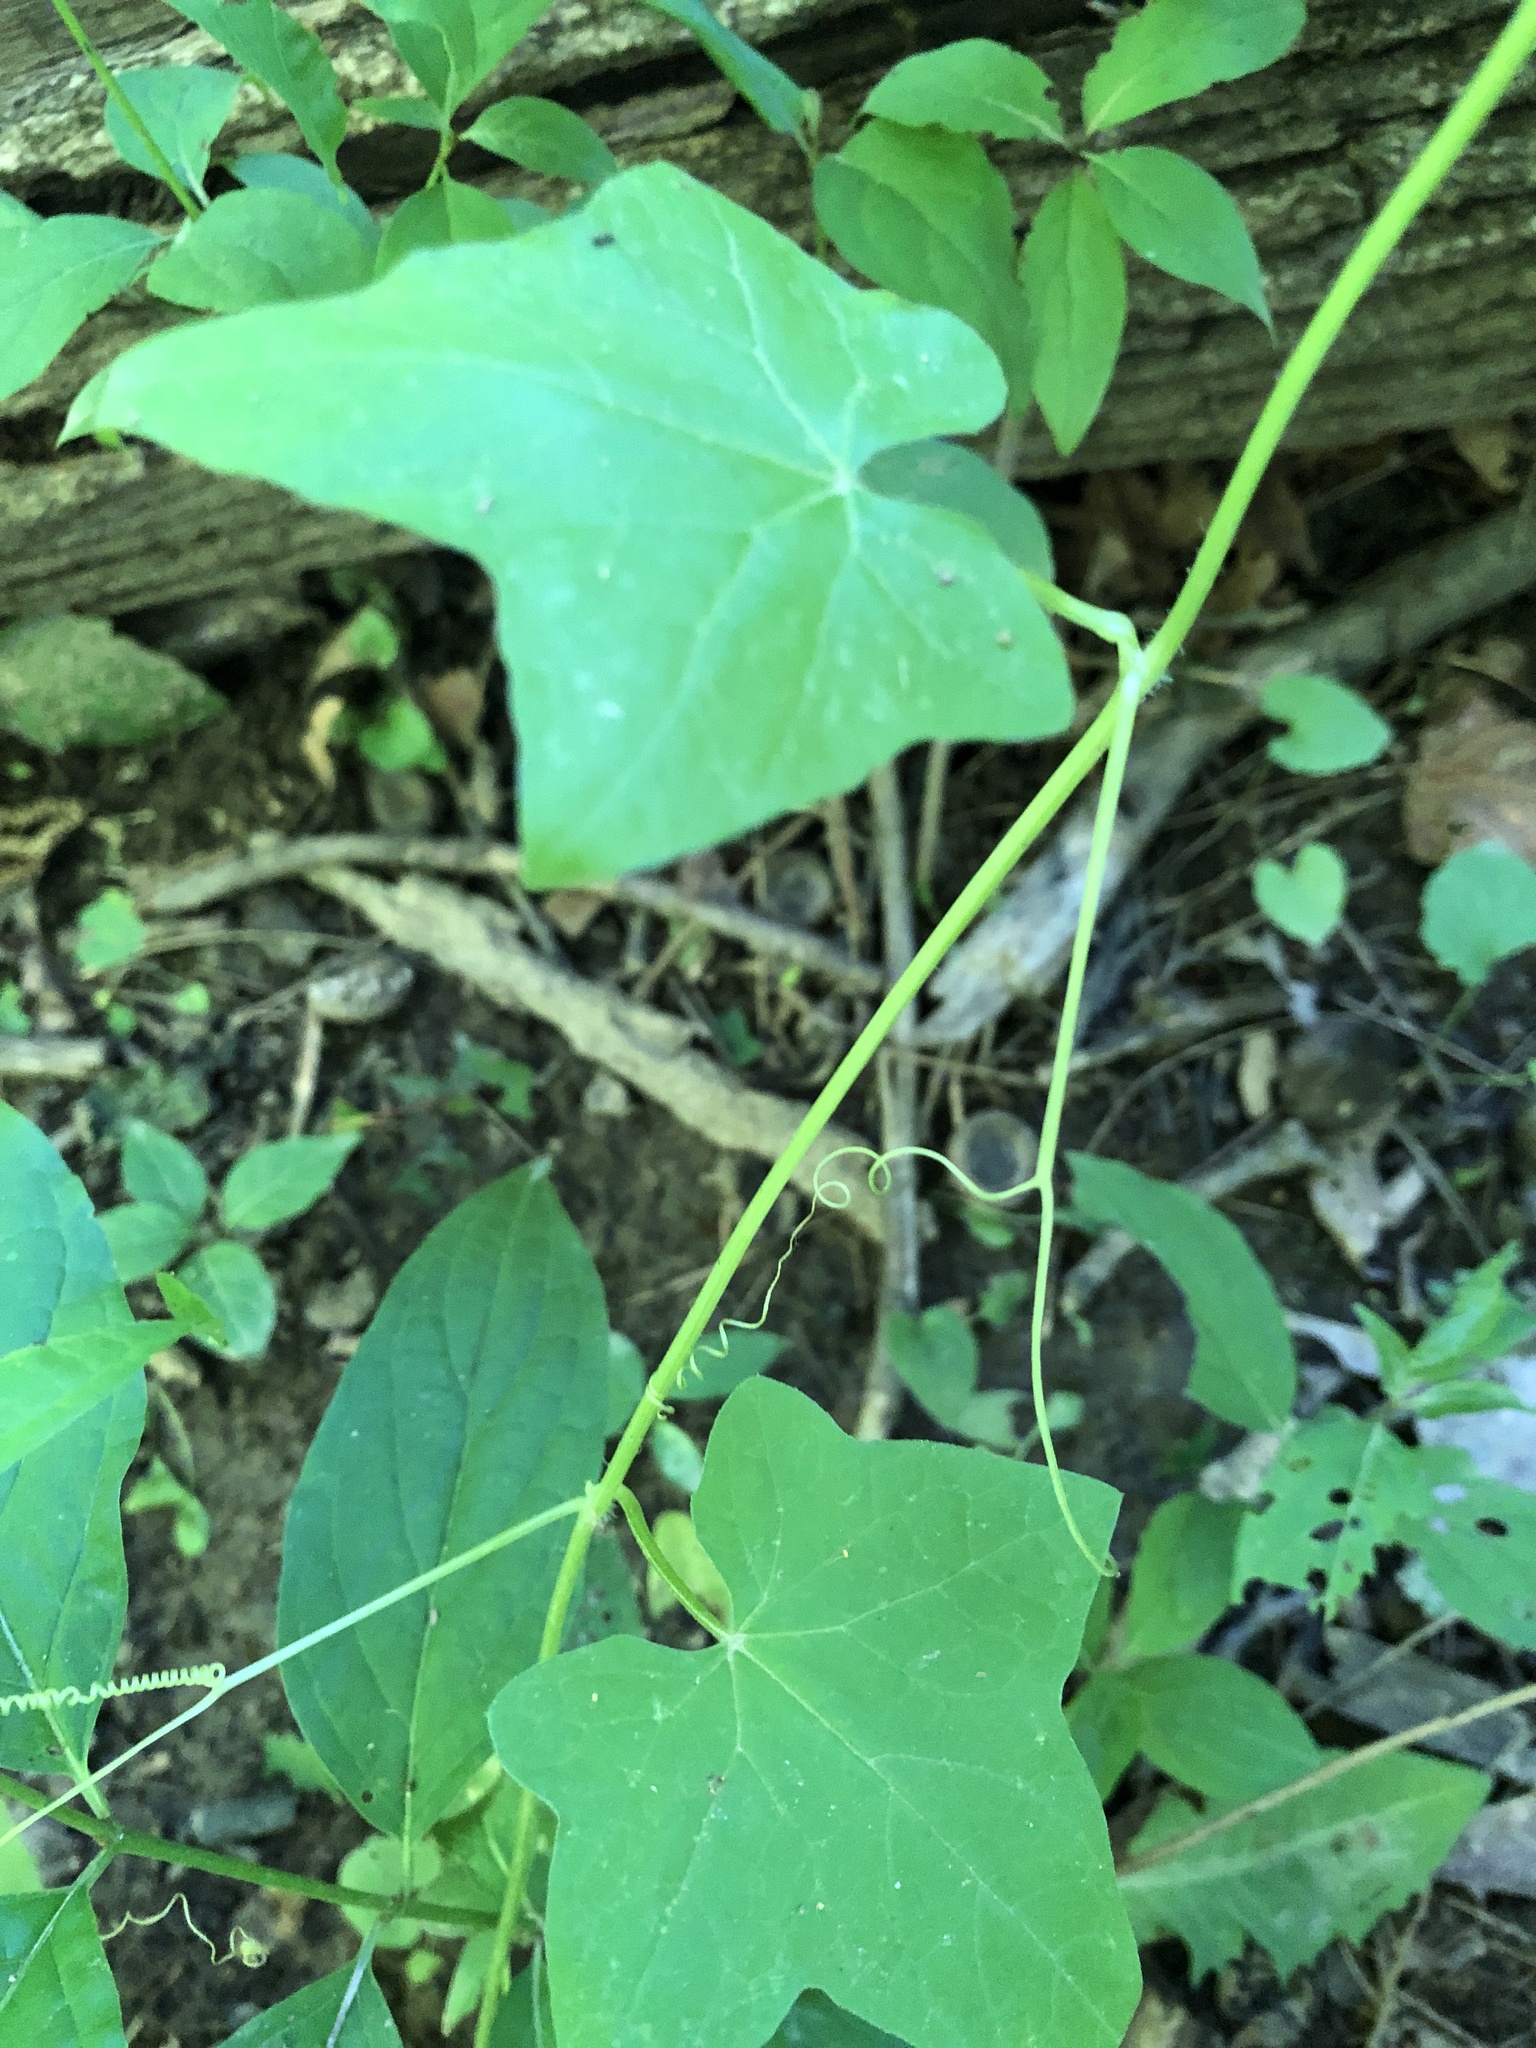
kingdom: Plantae
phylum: Tracheophyta
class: Magnoliopsida
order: Cucurbitales
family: Cucurbitaceae
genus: Sicyos
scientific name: Sicyos angulatus
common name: Angled burr cucumber
